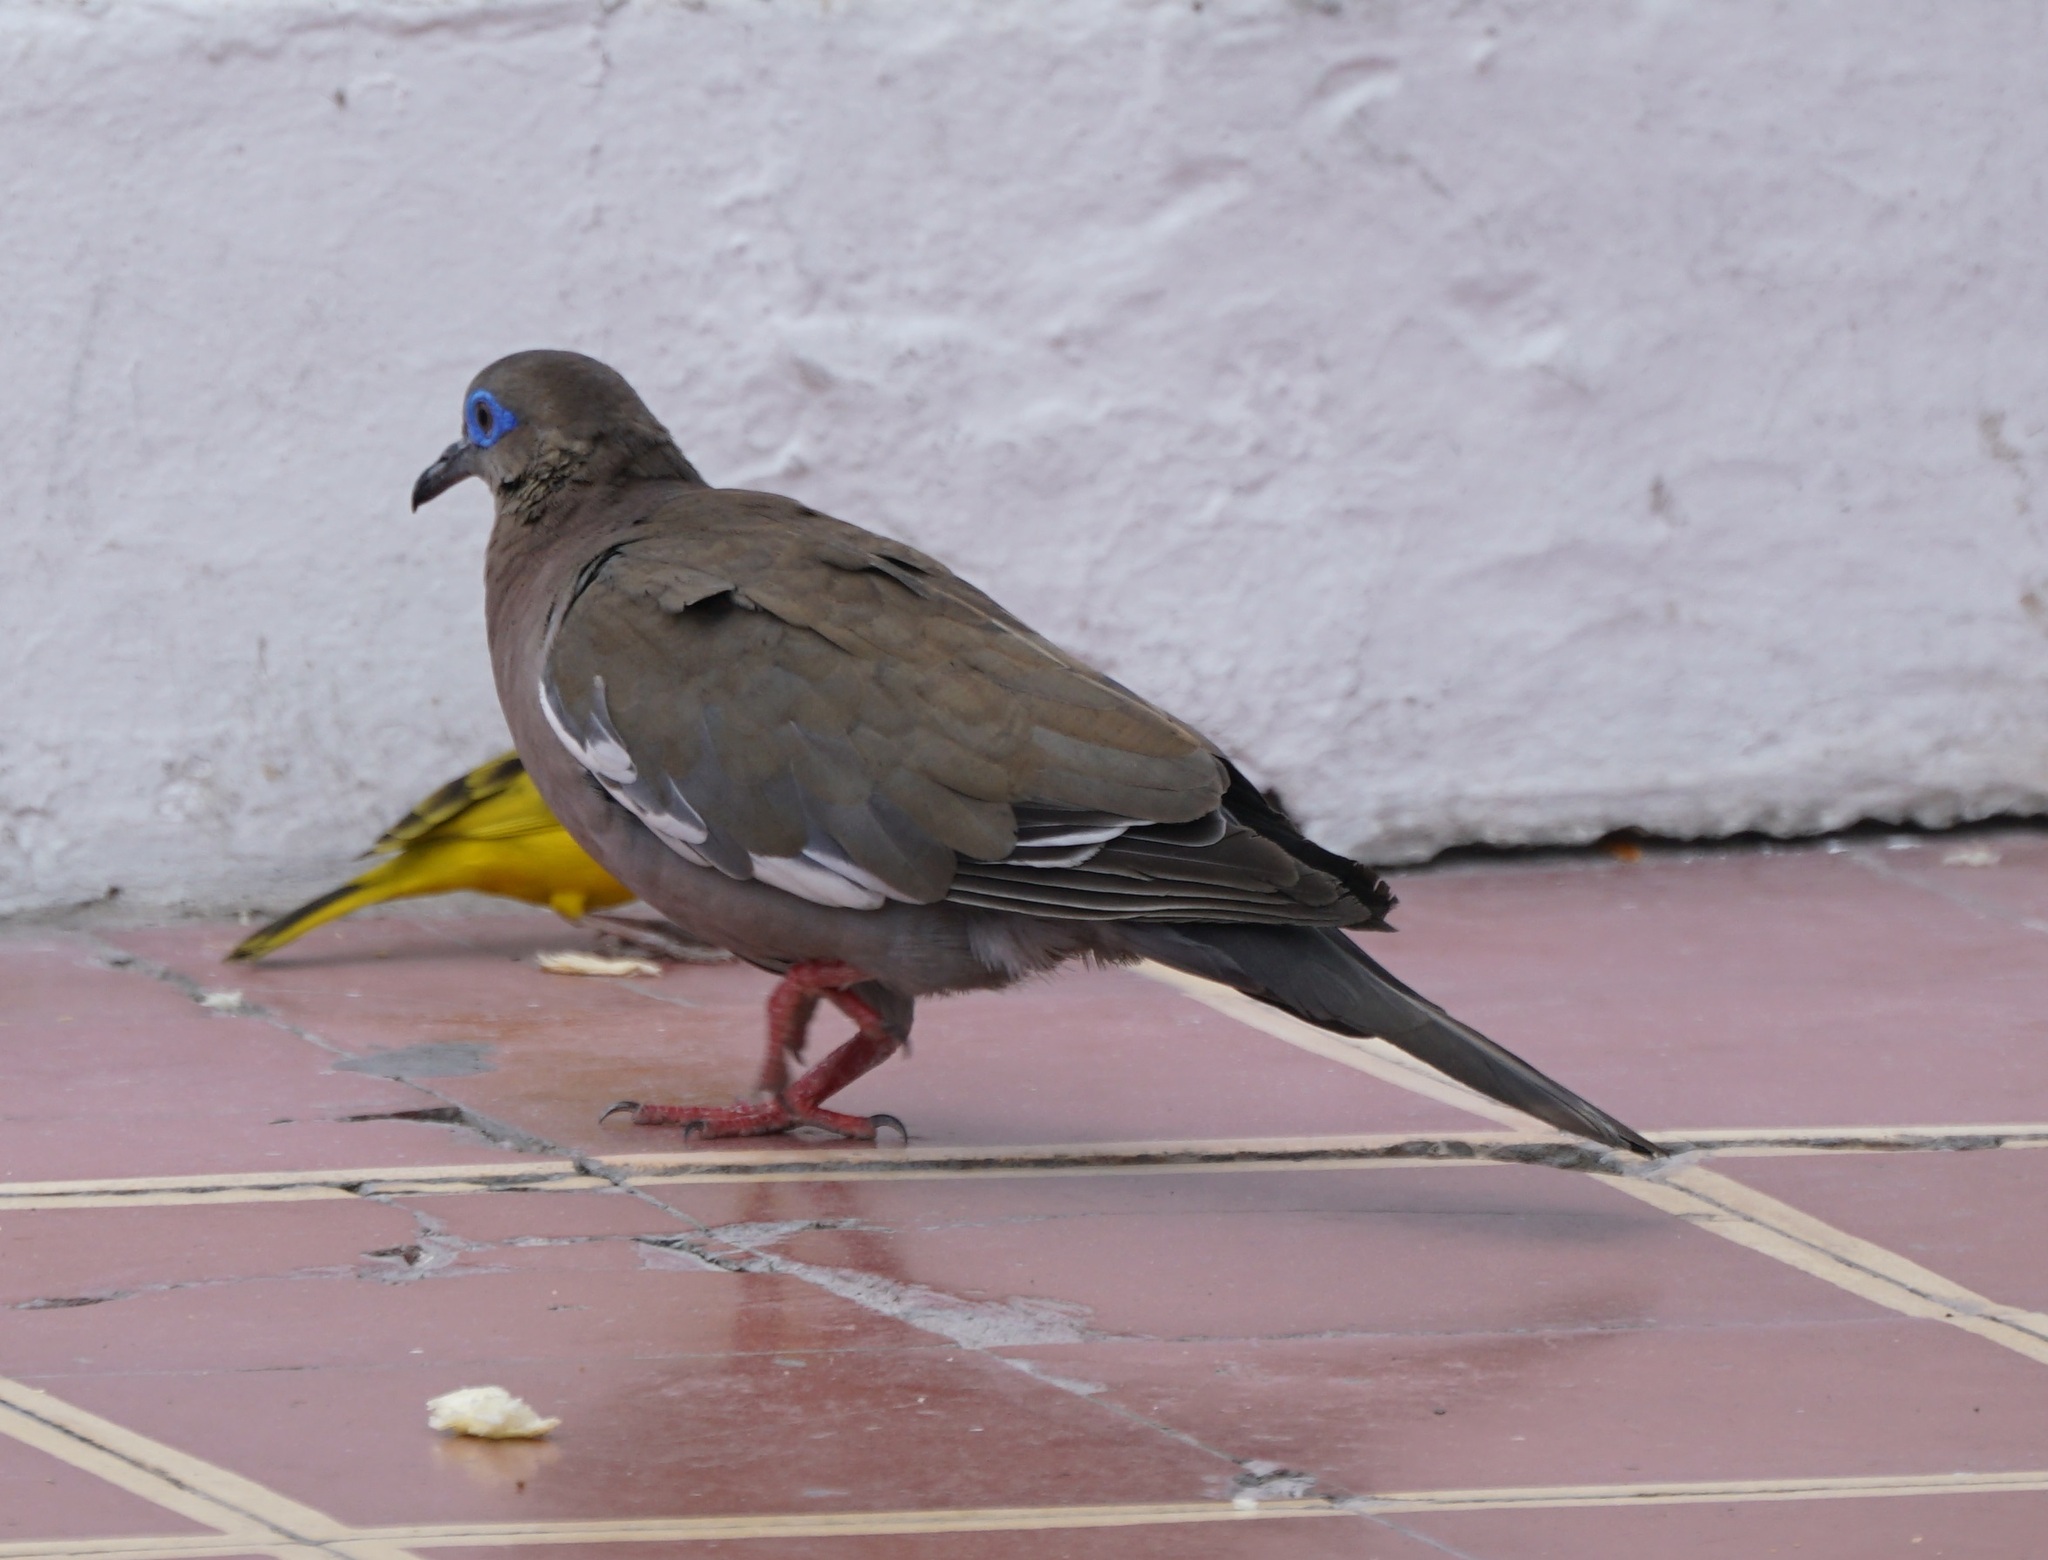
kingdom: Animalia
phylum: Chordata
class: Aves
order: Columbiformes
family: Columbidae
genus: Zenaida
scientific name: Zenaida meloda
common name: West peruvian dove
